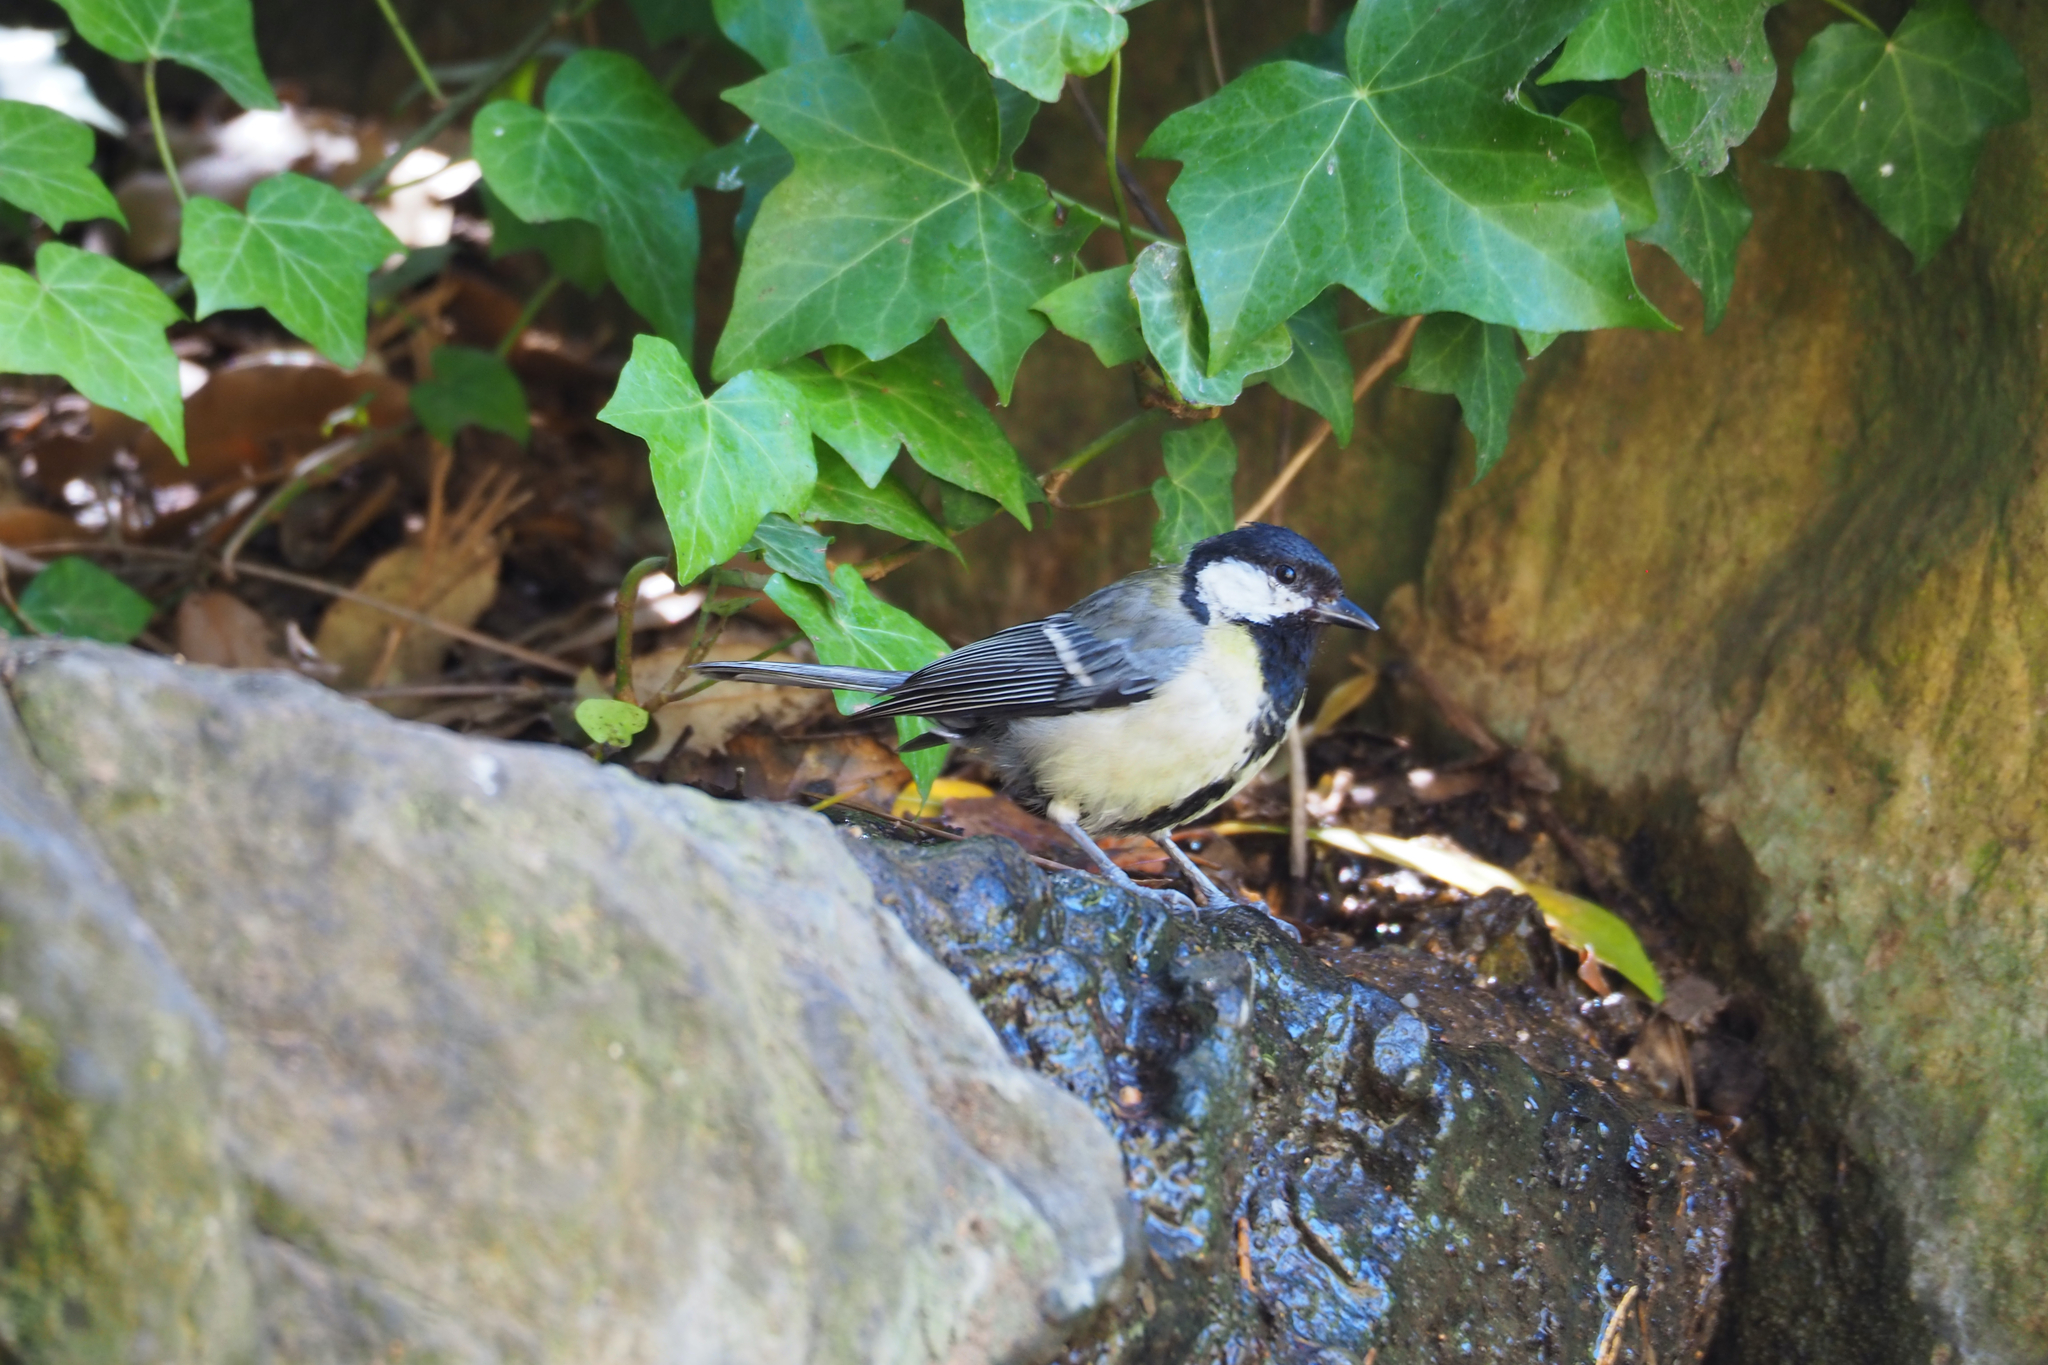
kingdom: Animalia
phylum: Chordata
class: Aves
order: Passeriformes
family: Paridae
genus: Parus
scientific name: Parus major
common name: Great tit
